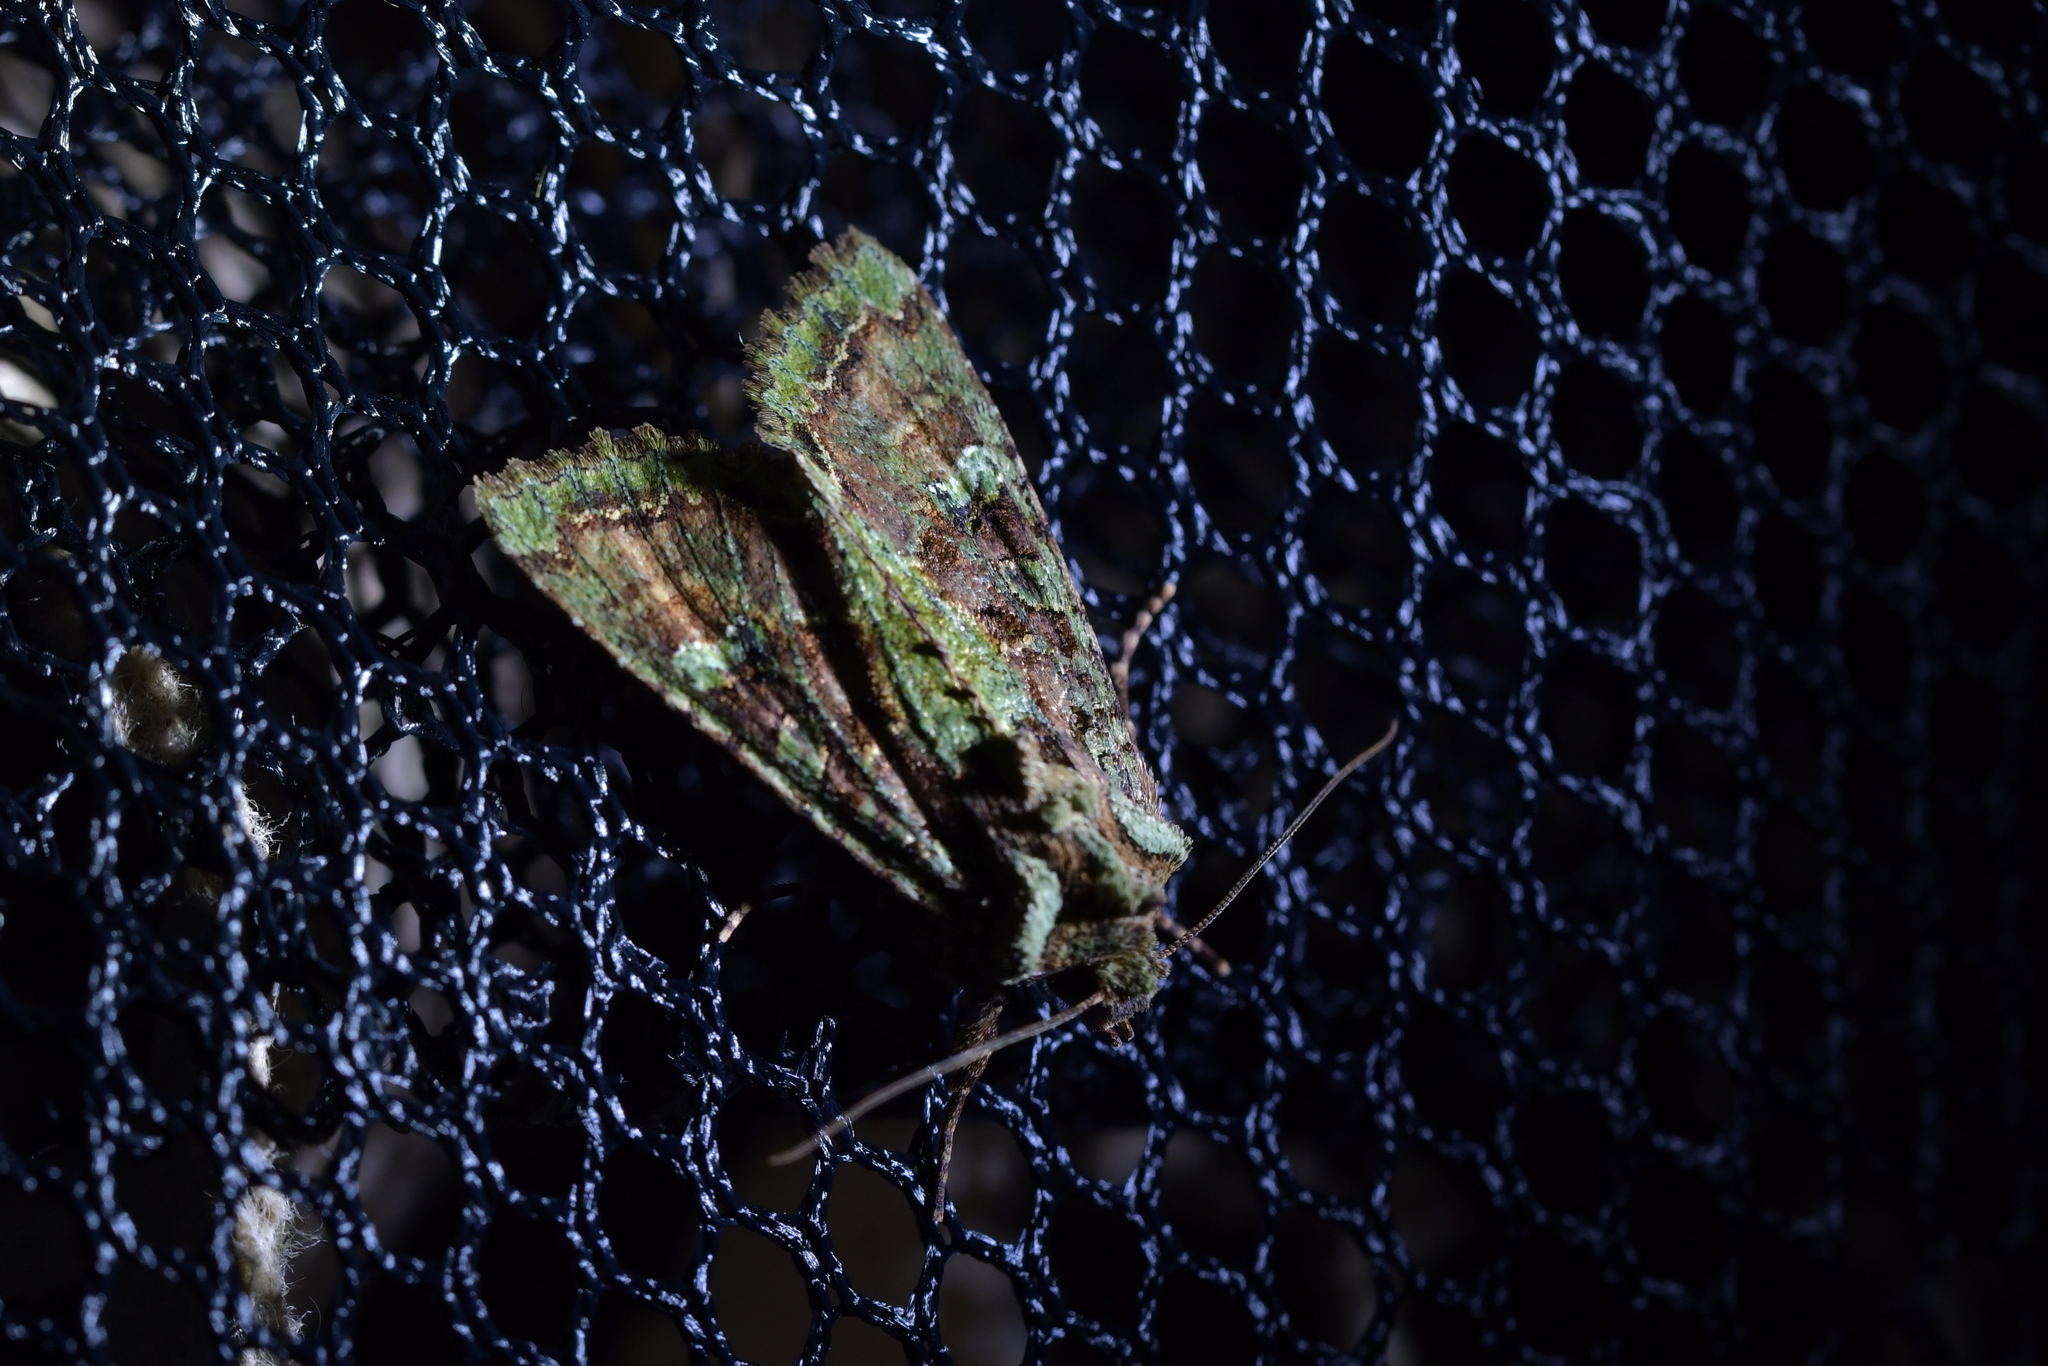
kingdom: Animalia
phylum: Arthropoda
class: Insecta
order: Lepidoptera
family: Noctuidae
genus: Meterana
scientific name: Meterana
